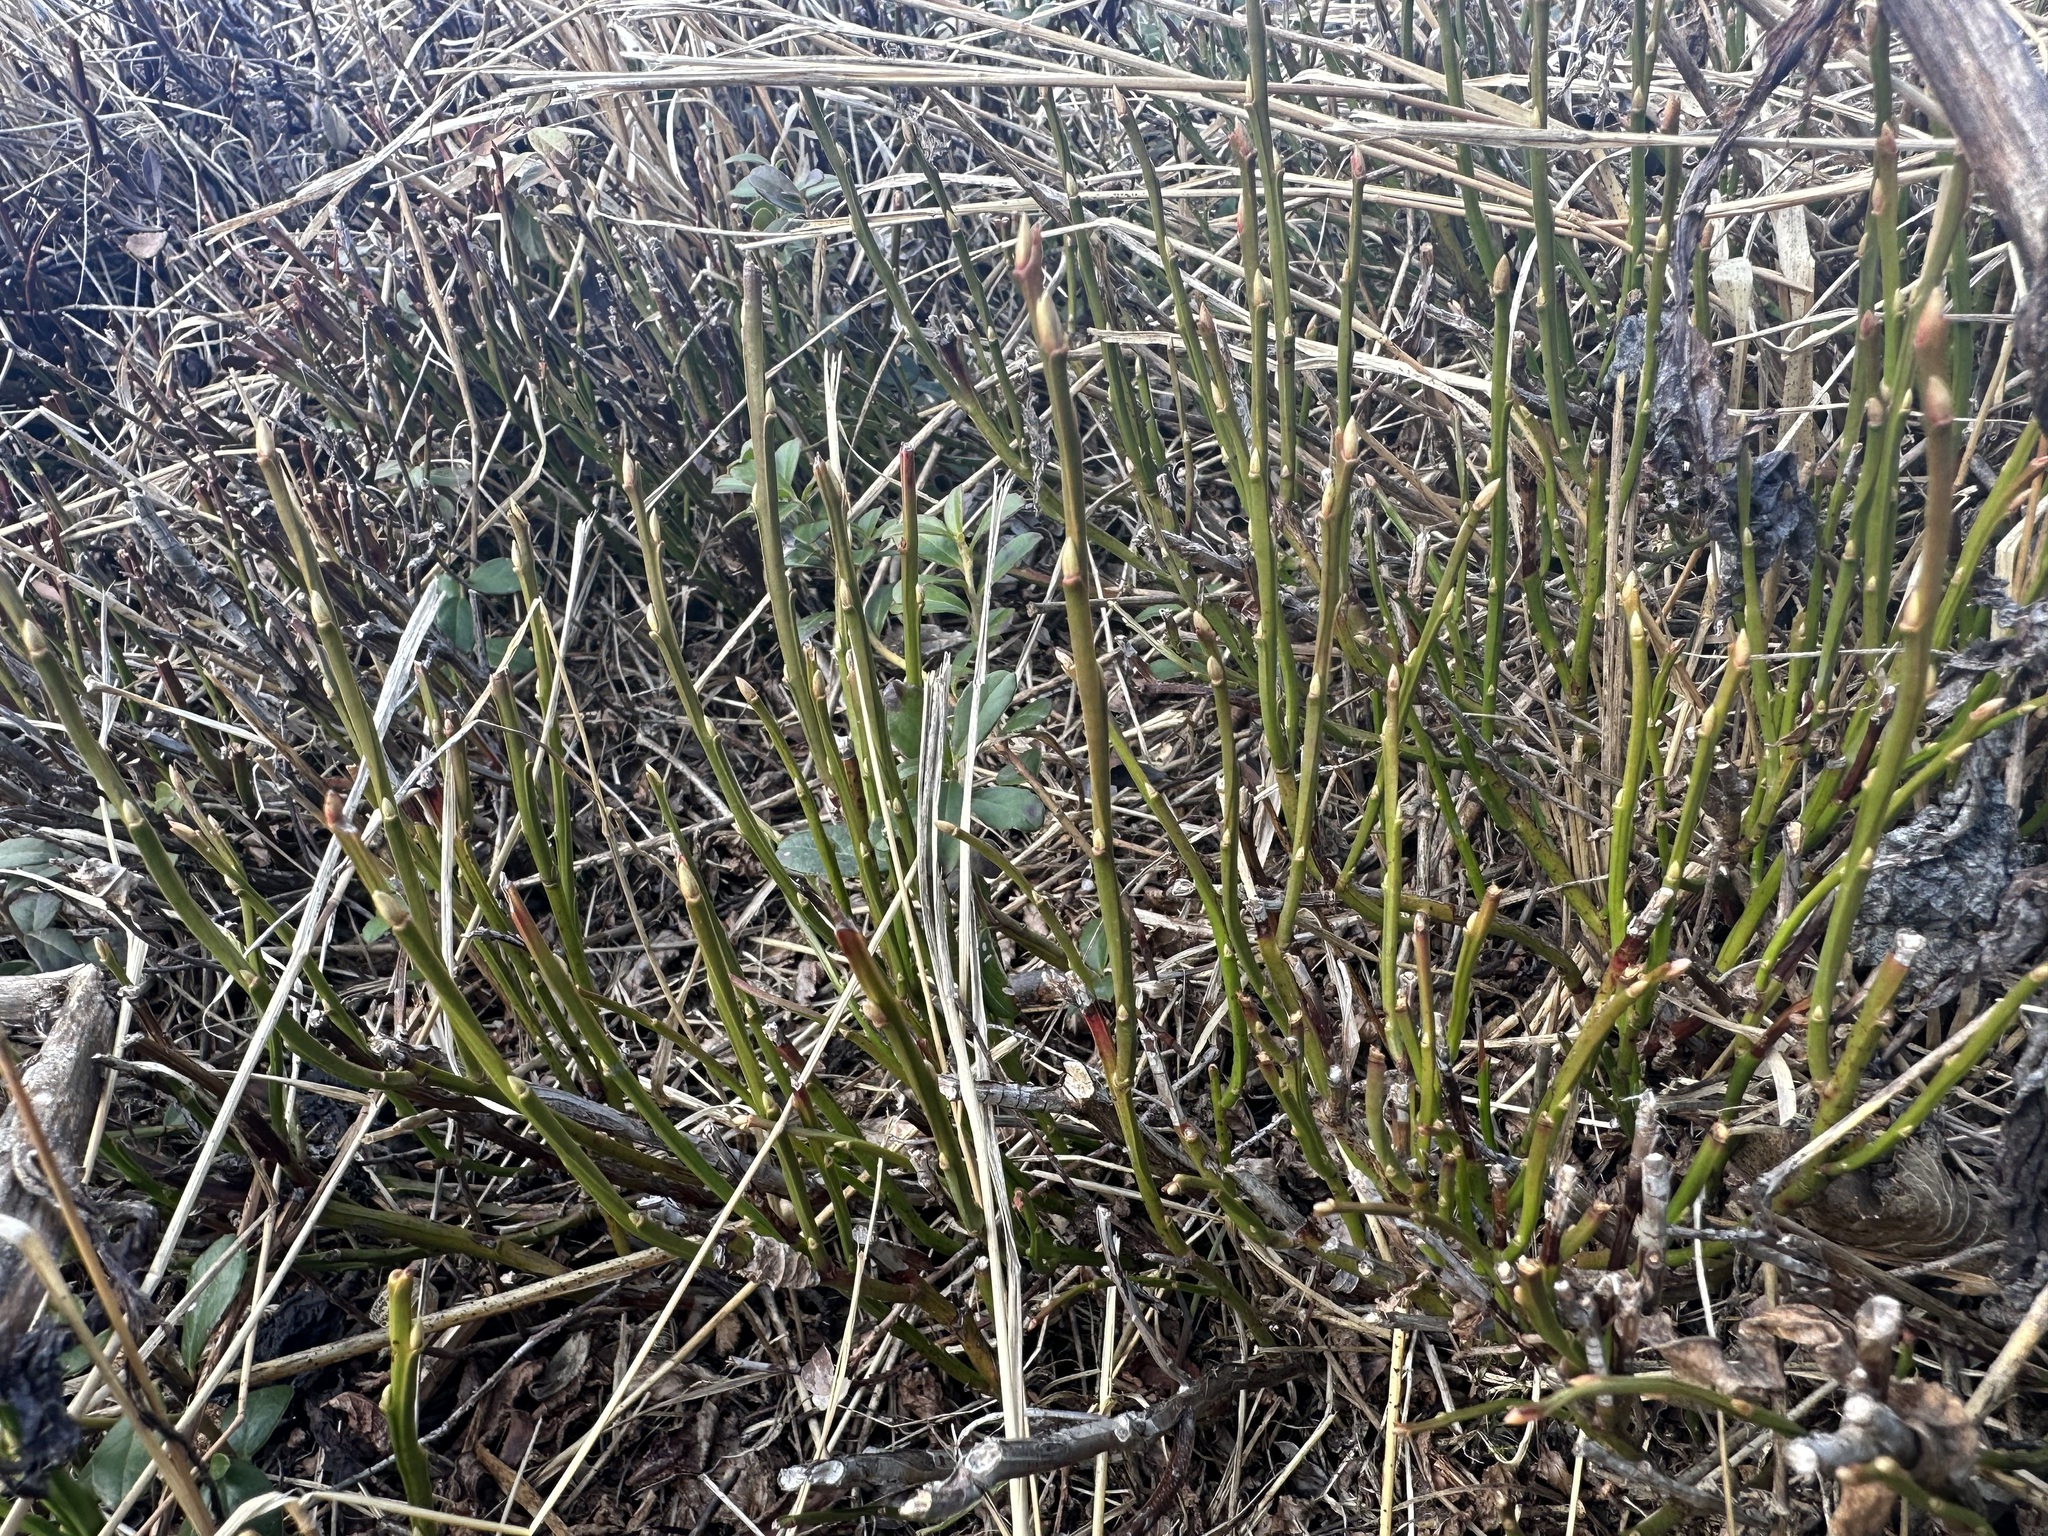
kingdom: Plantae
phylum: Tracheophyta
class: Magnoliopsida
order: Ericales
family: Ericaceae
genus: Vaccinium
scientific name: Vaccinium myrtillus
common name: Bilberry
